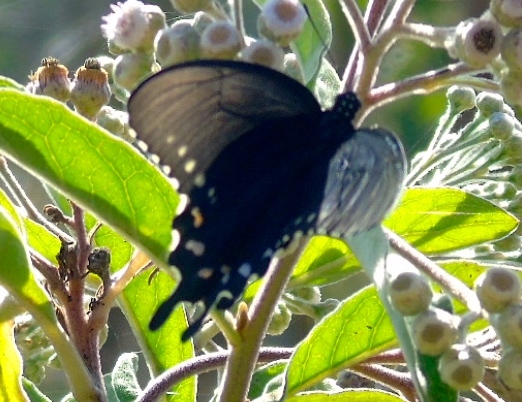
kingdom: Animalia
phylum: Arthropoda
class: Insecta
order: Lepidoptera
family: Papilionidae
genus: Battus
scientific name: Battus philenor
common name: Pipevine swallowtail
